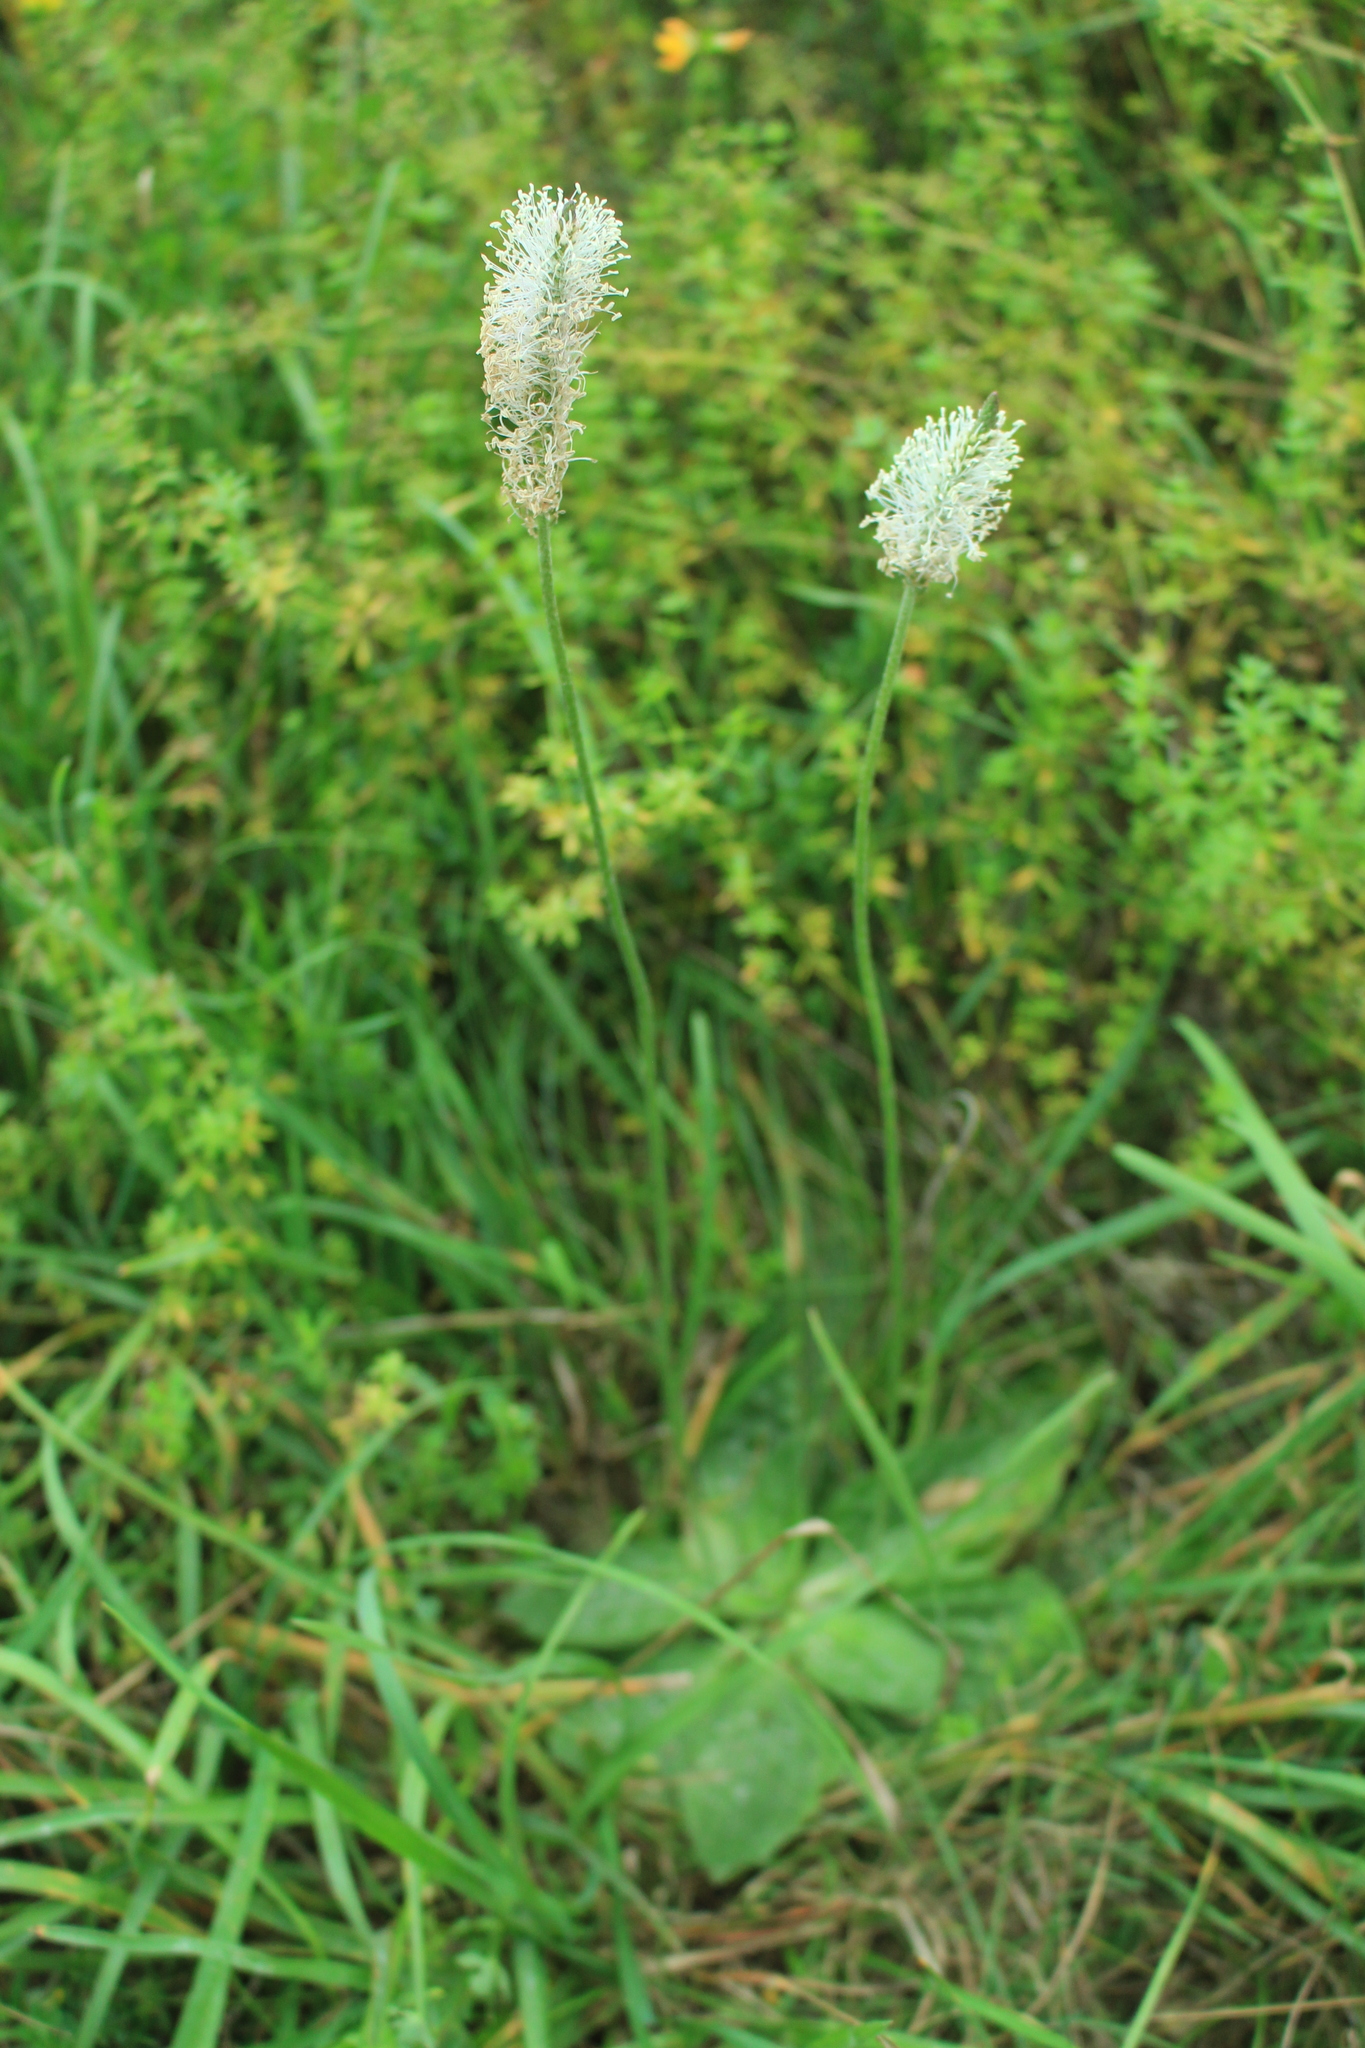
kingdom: Plantae
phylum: Tracheophyta
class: Magnoliopsida
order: Lamiales
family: Plantaginaceae
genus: Plantago
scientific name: Plantago media
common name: Hoary plantain
